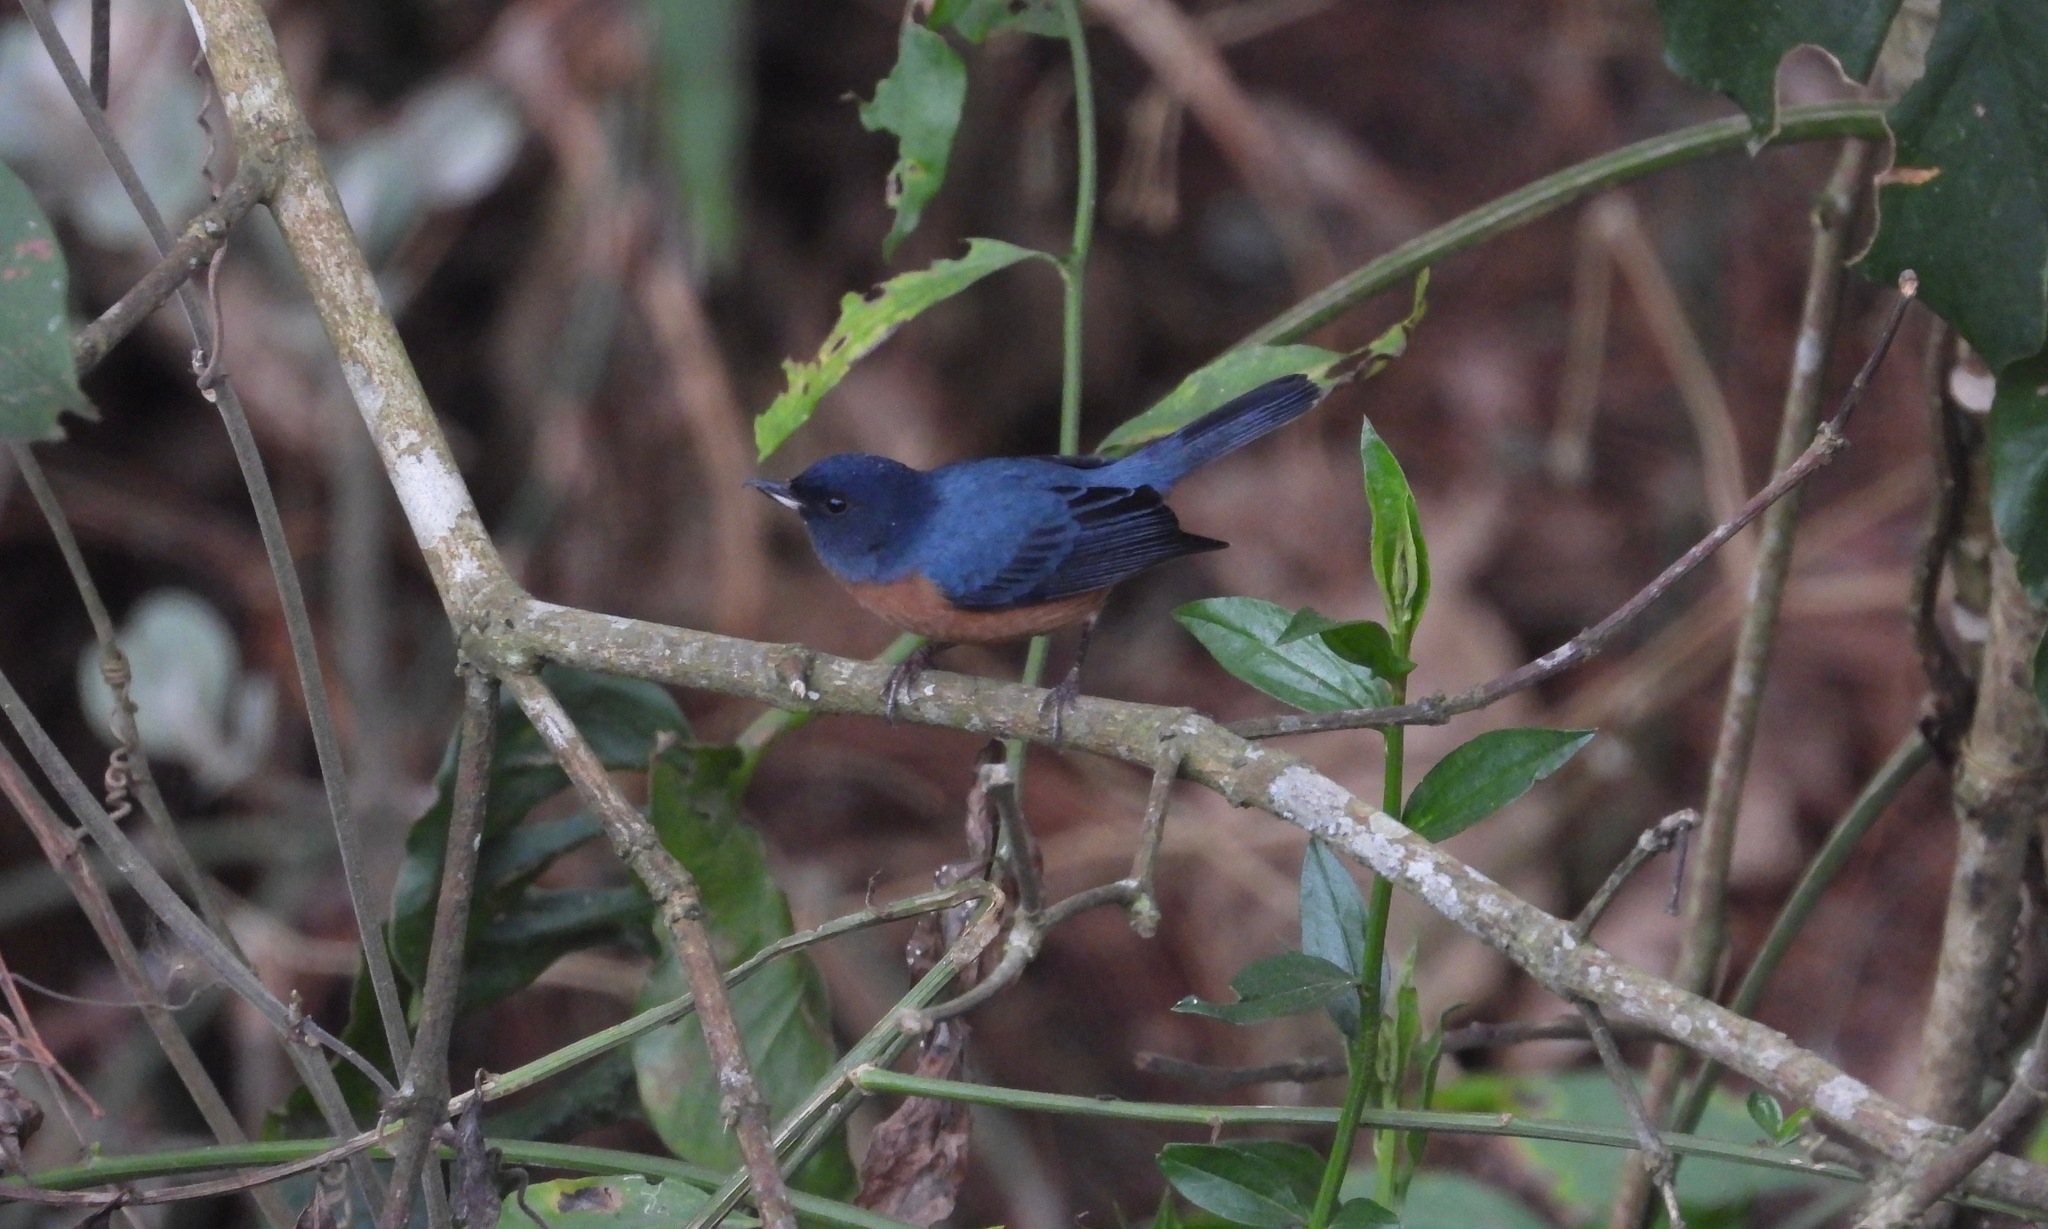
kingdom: Animalia
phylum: Chordata
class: Aves
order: Passeriformes
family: Thraupidae
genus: Diglossa
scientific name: Diglossa baritula
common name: Cinnamon-bellied flowerpiercer
